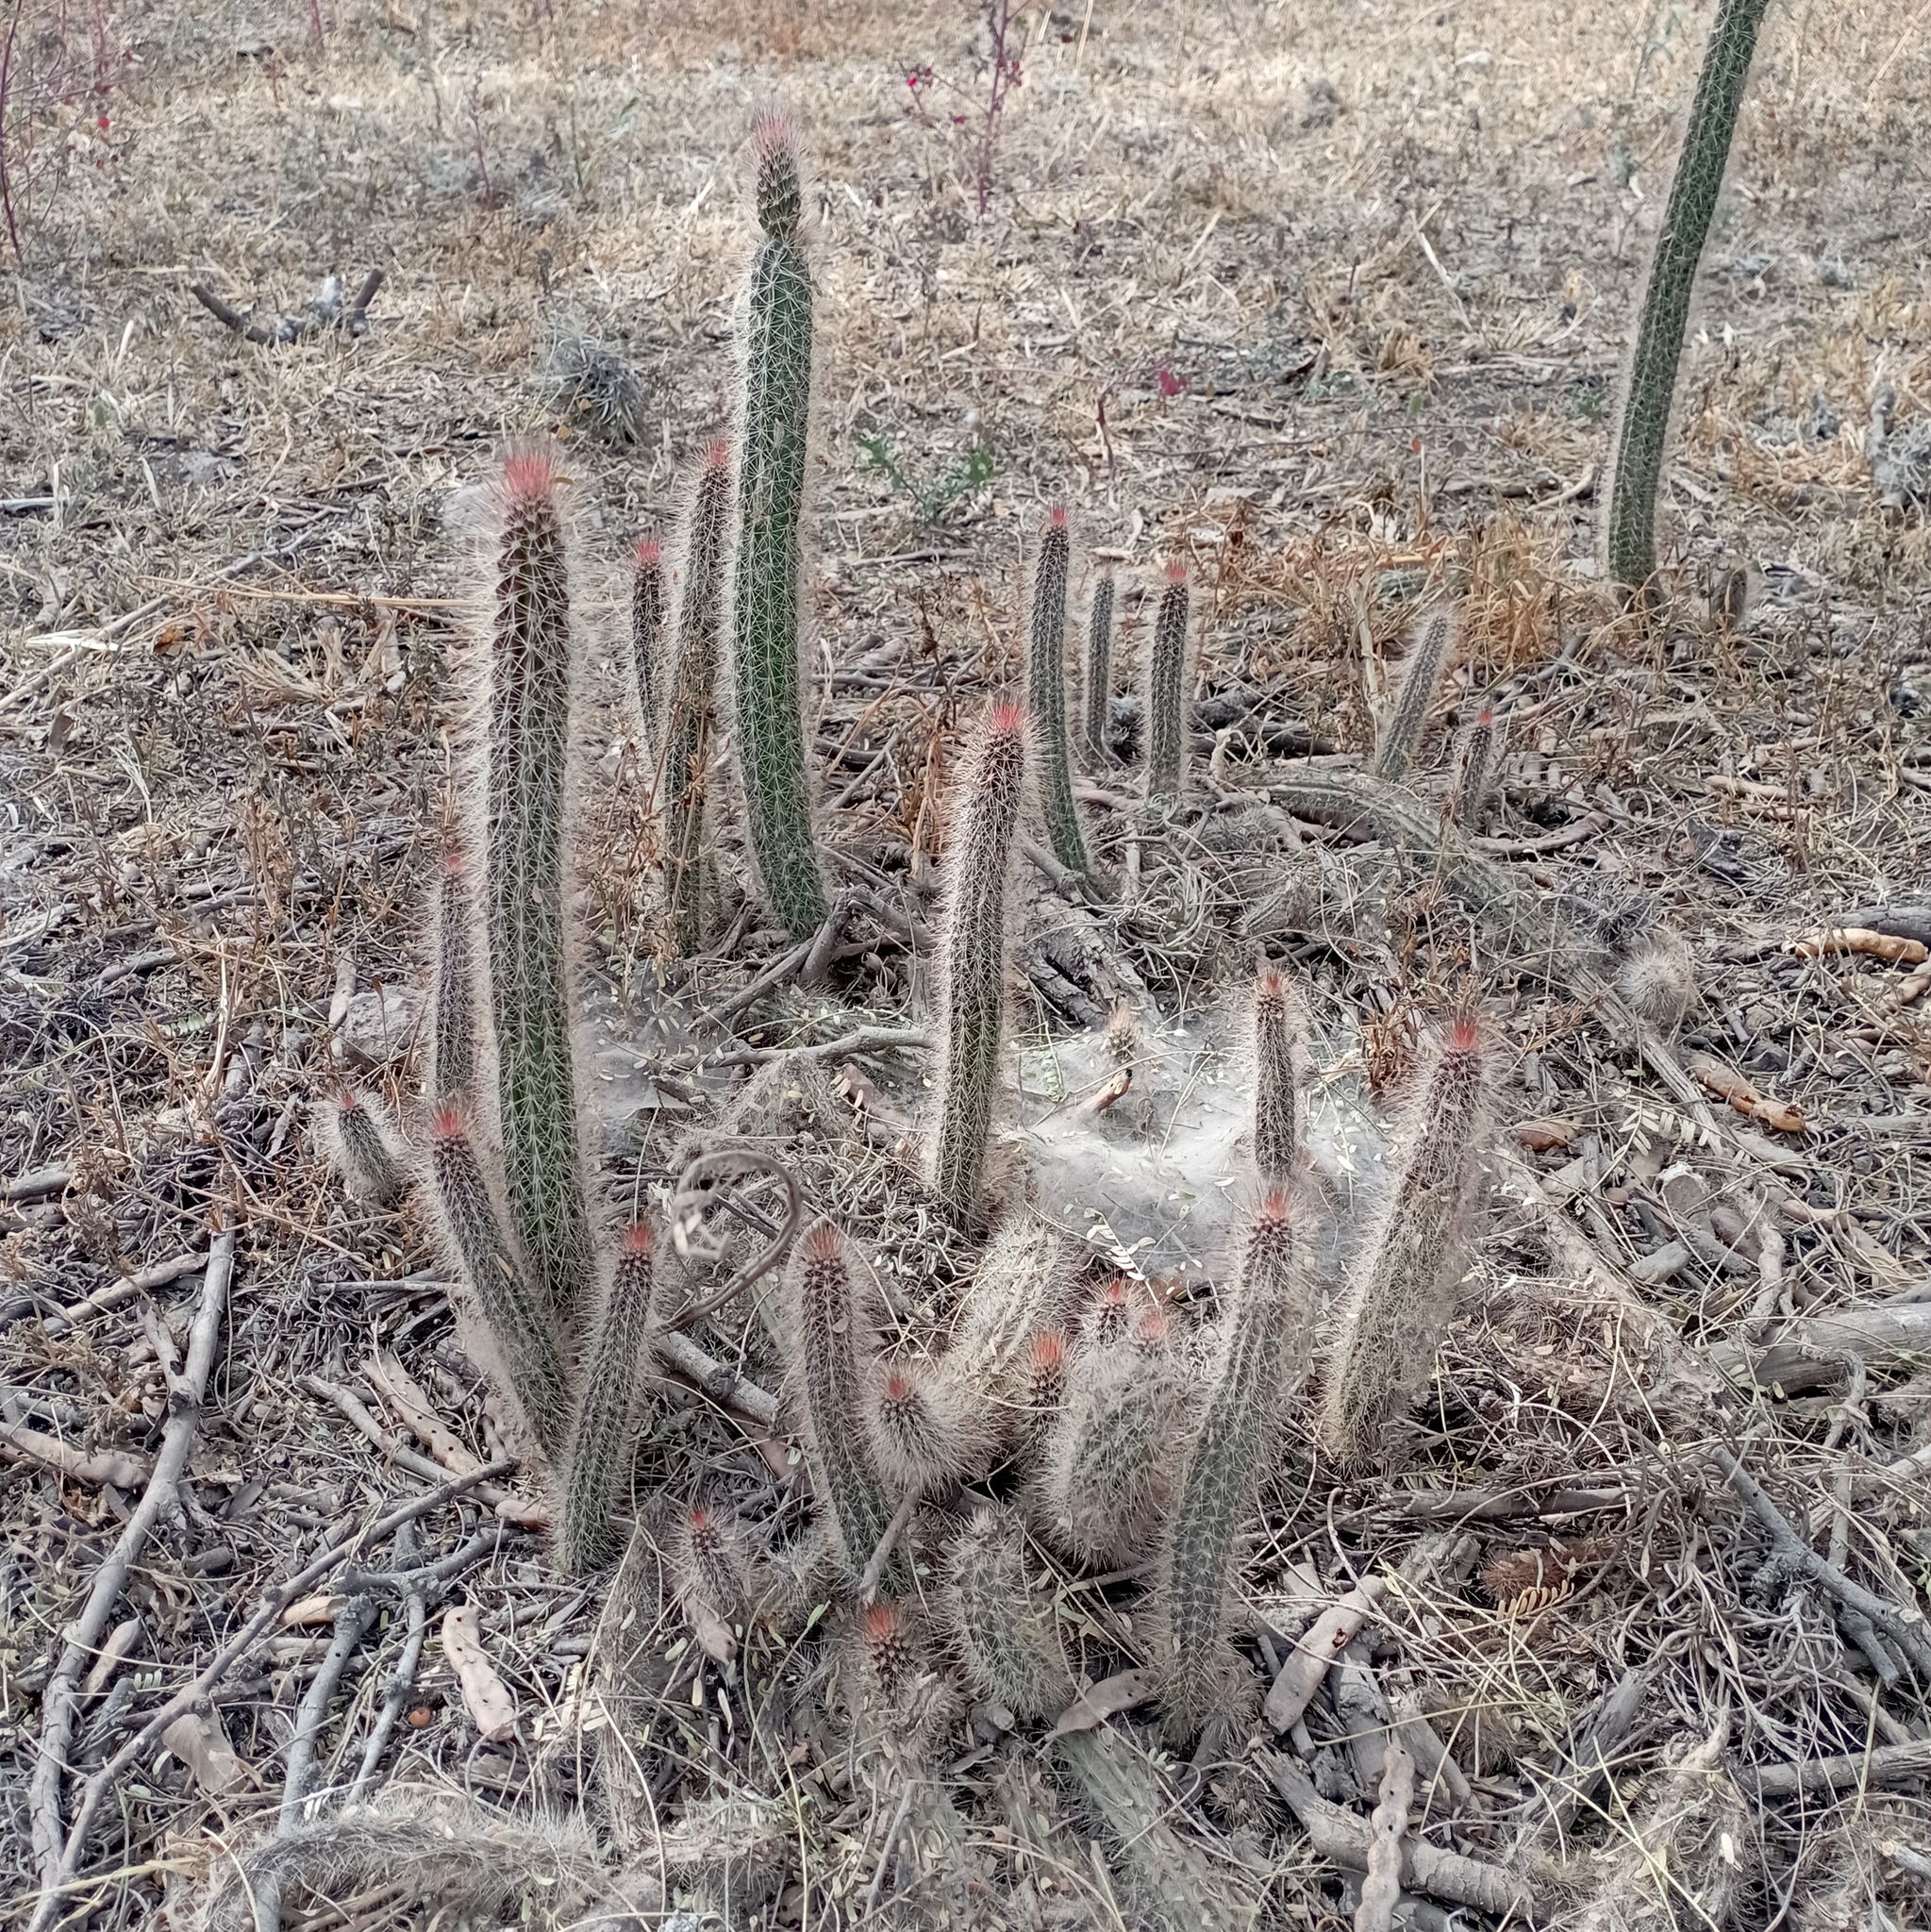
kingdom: Plantae
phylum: Tracheophyta
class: Magnoliopsida
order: Caryophyllales
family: Cactaceae
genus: Peniocereus
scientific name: Peniocereus serpentinus
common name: Serpent cactus
